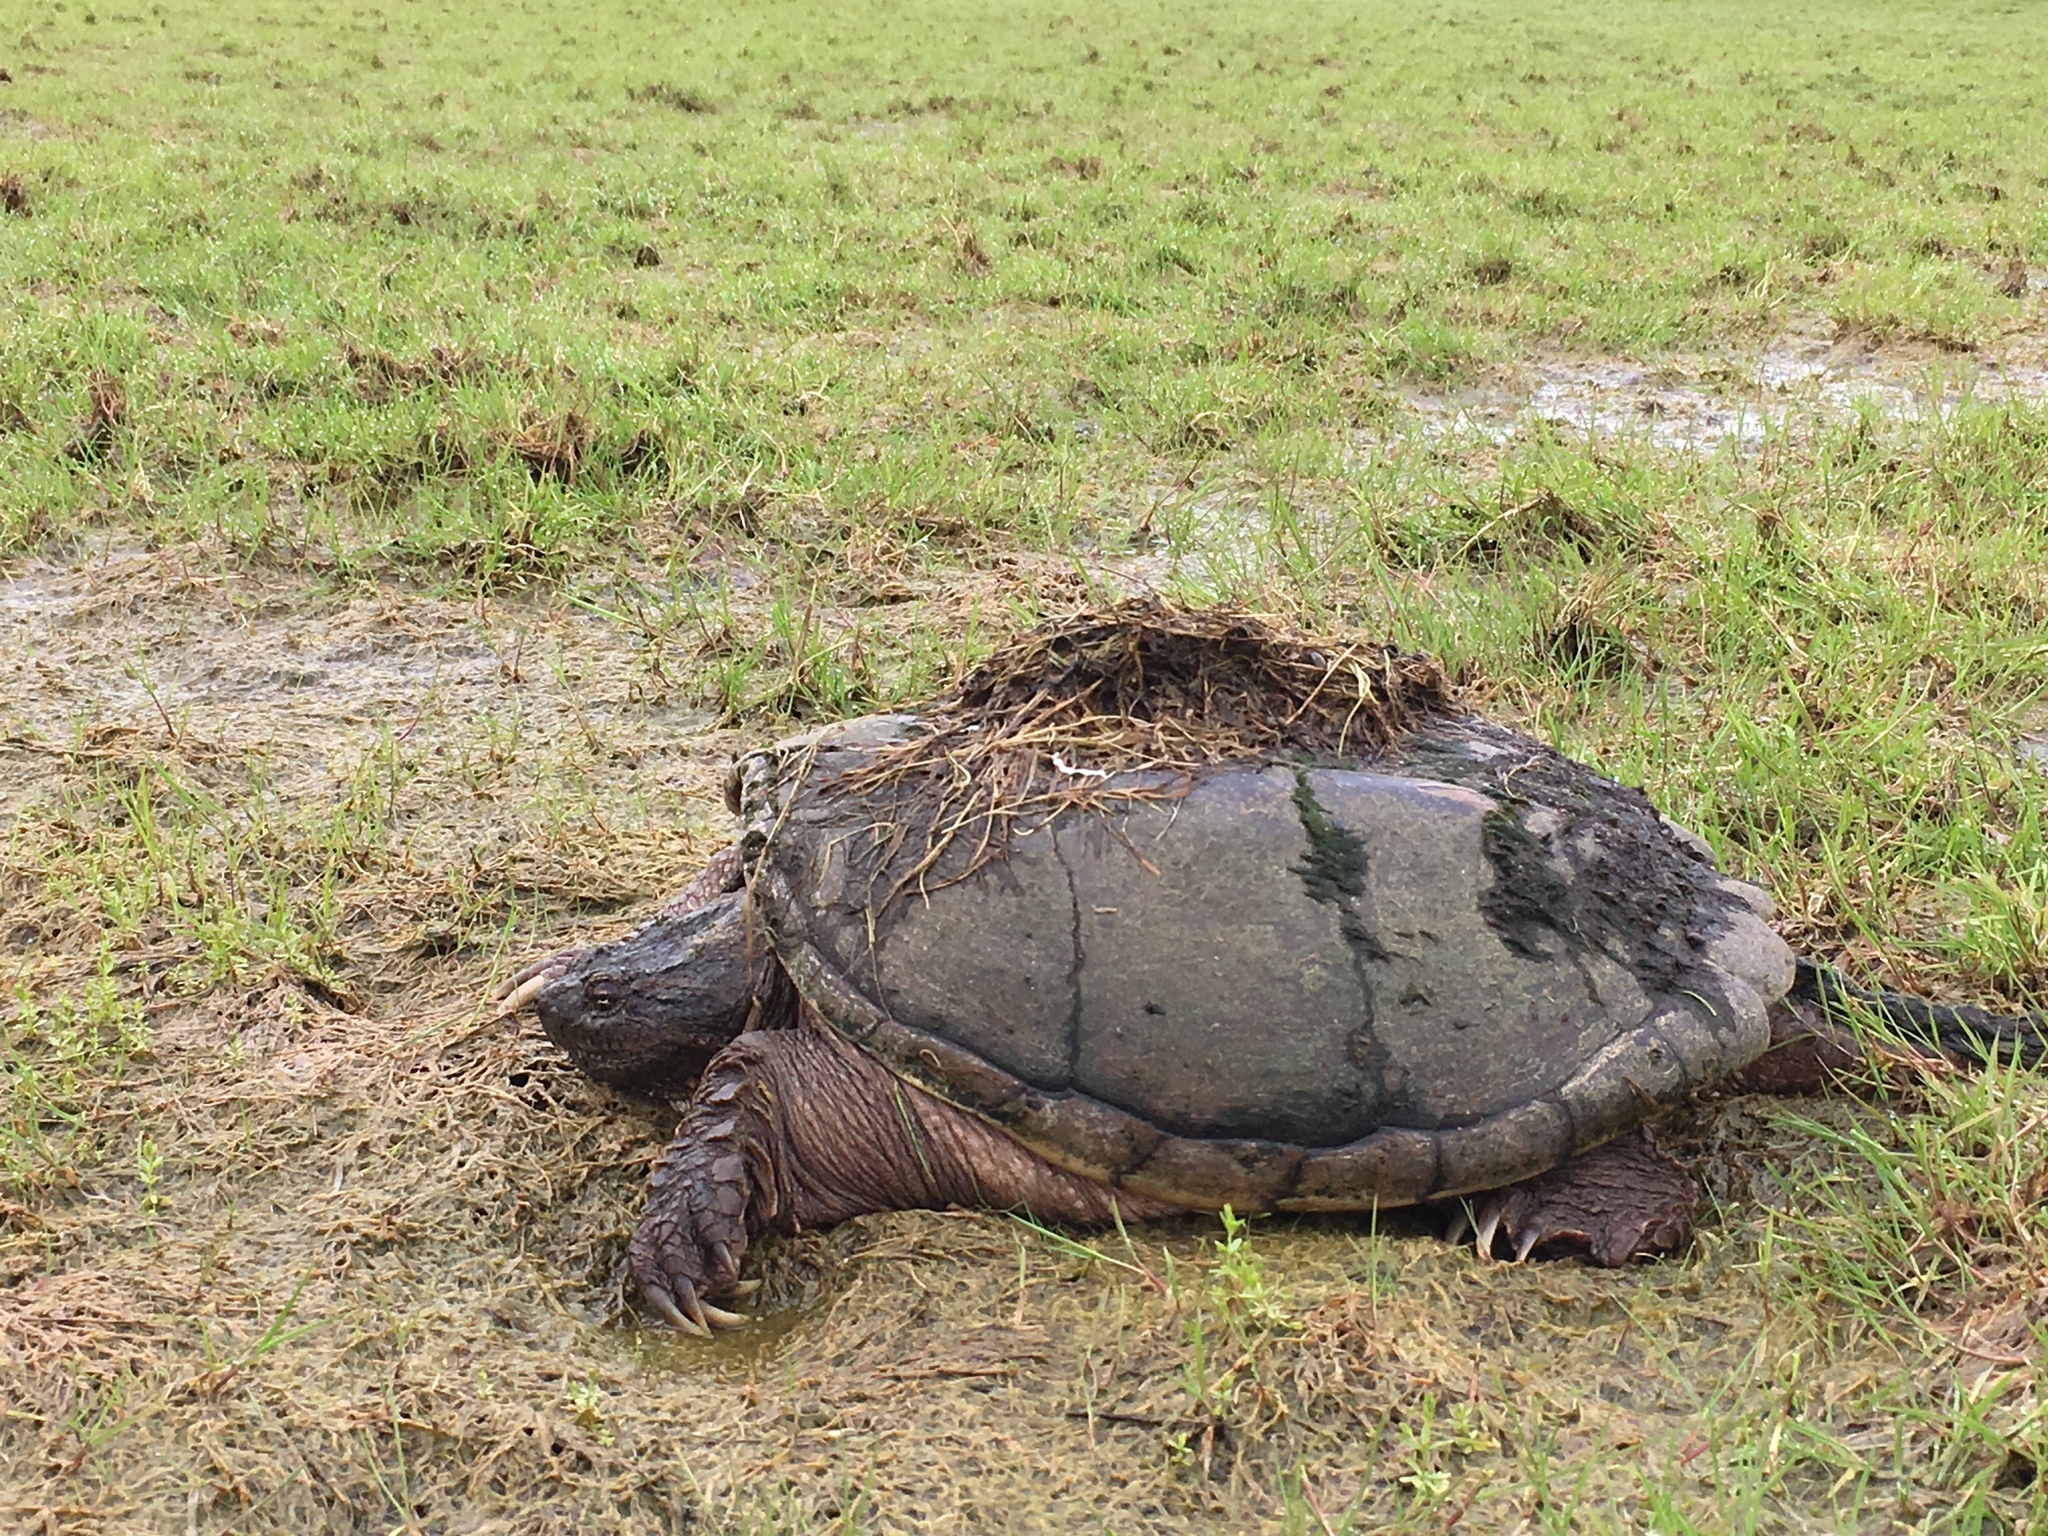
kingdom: Animalia
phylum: Chordata
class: Testudines
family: Chelydridae
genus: Chelydra
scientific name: Chelydra serpentina
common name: Common snapping turtle
